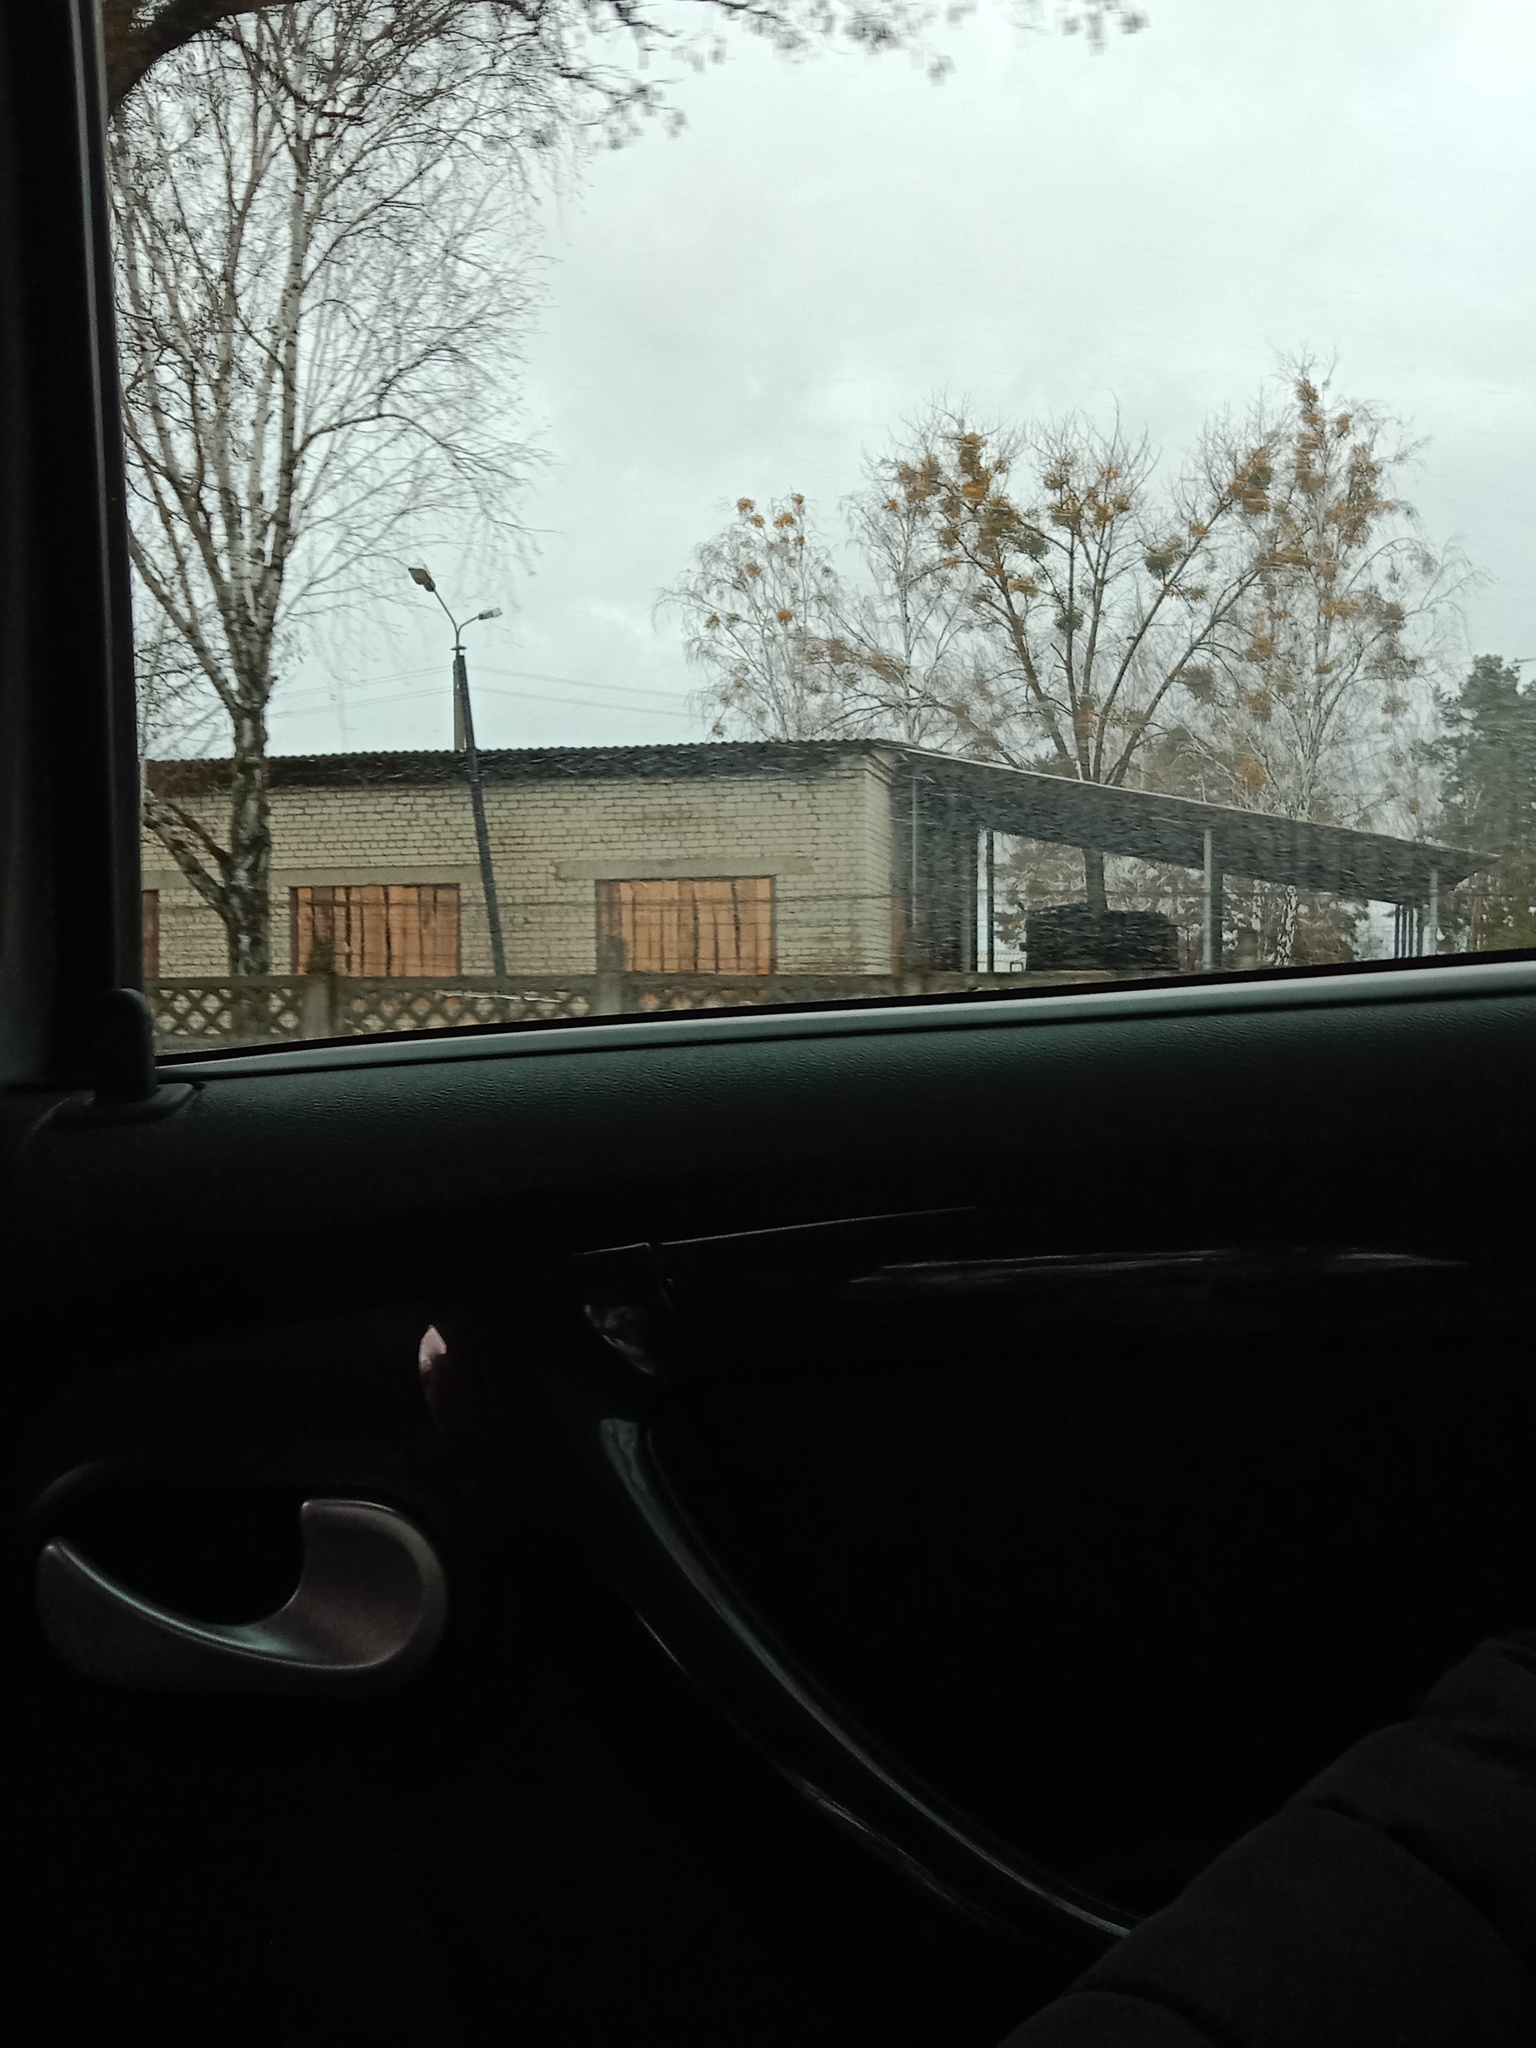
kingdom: Plantae
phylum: Tracheophyta
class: Magnoliopsida
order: Santalales
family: Viscaceae
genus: Viscum
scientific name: Viscum album
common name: Mistletoe
